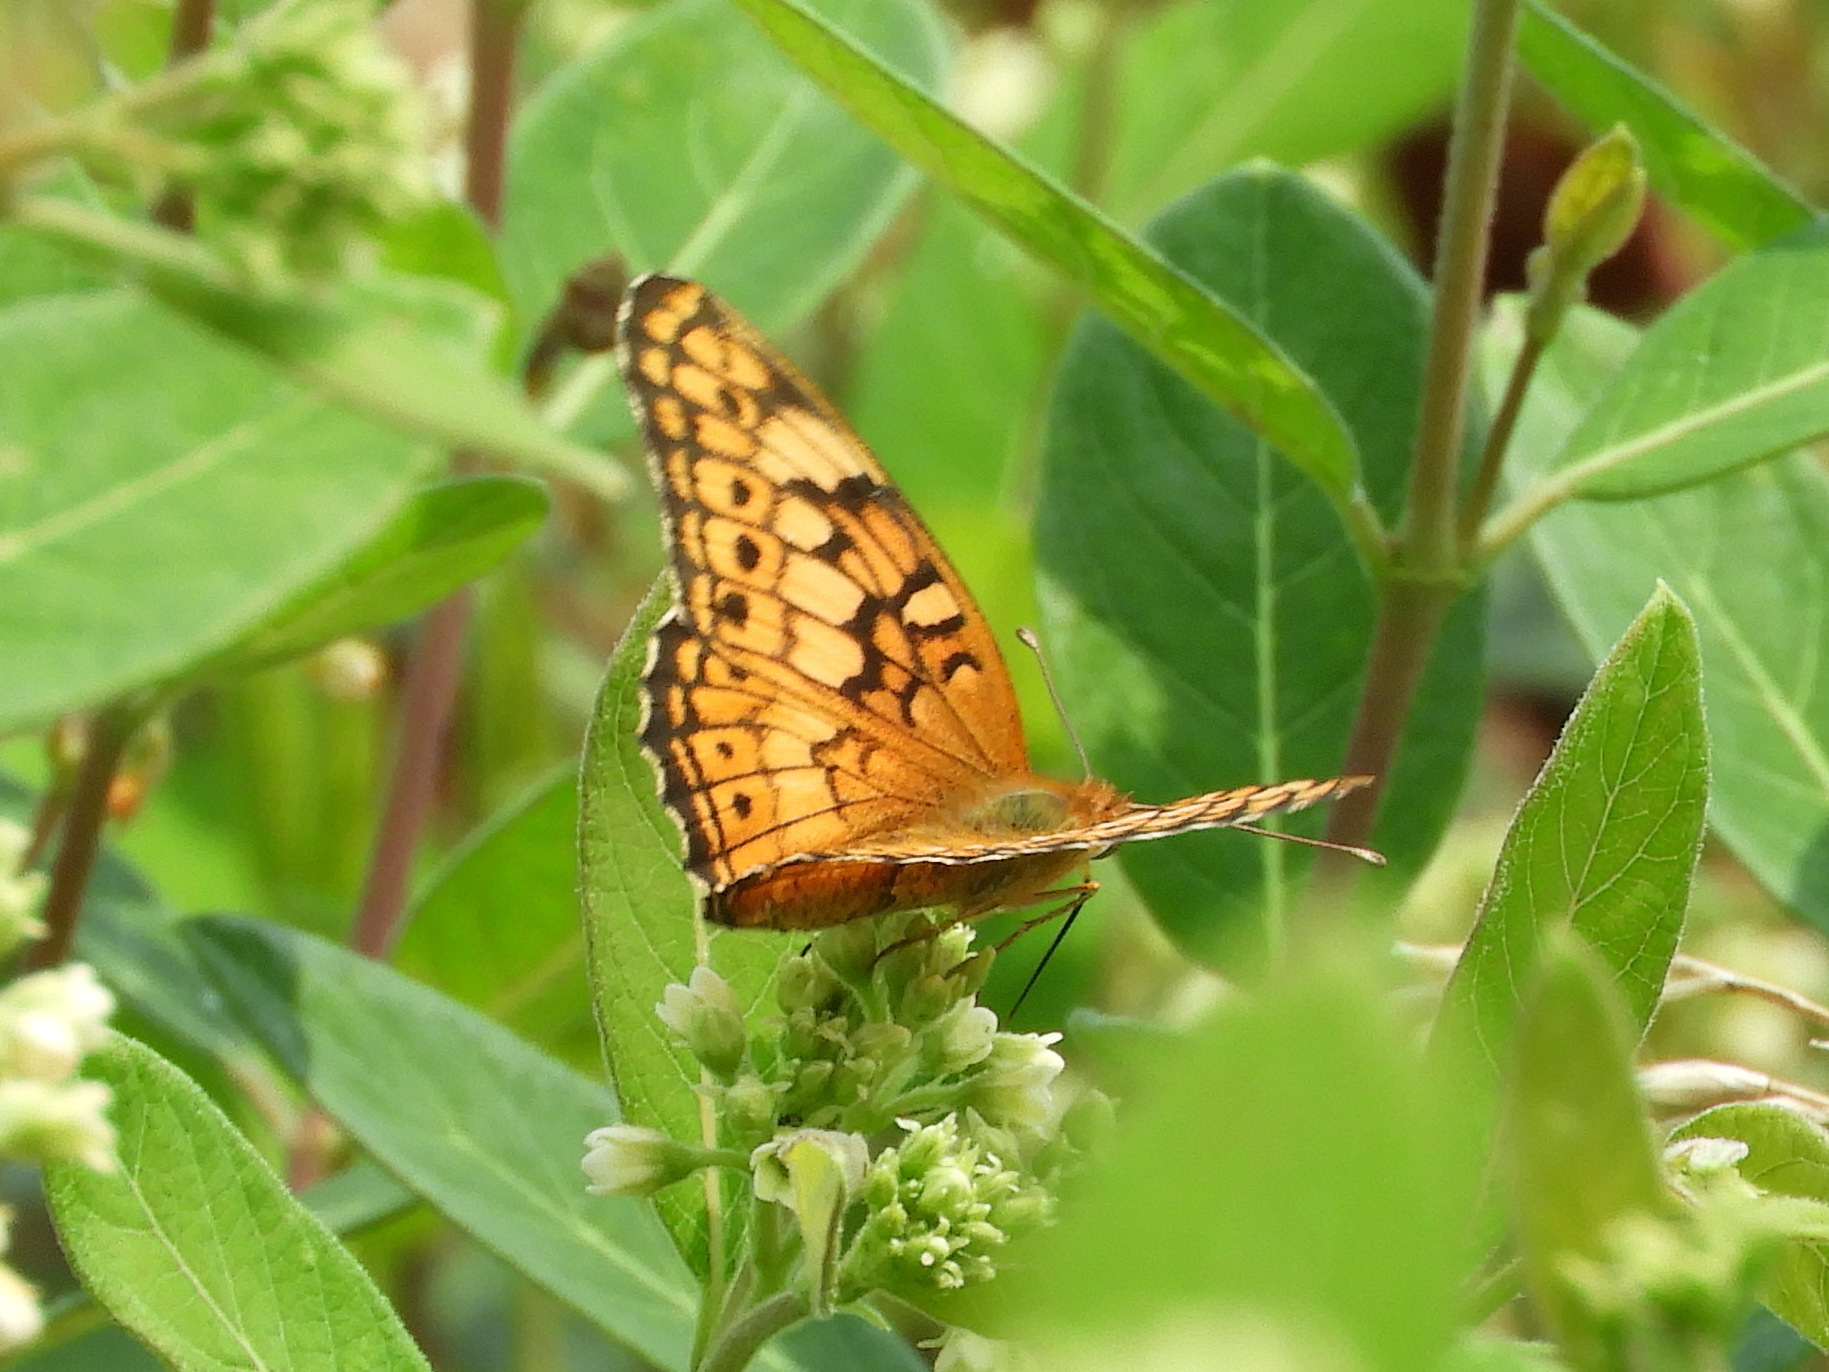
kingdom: Animalia
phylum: Arthropoda
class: Insecta
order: Lepidoptera
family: Nymphalidae
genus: Euptoieta
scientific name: Euptoieta claudia
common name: Variegated fritillary
